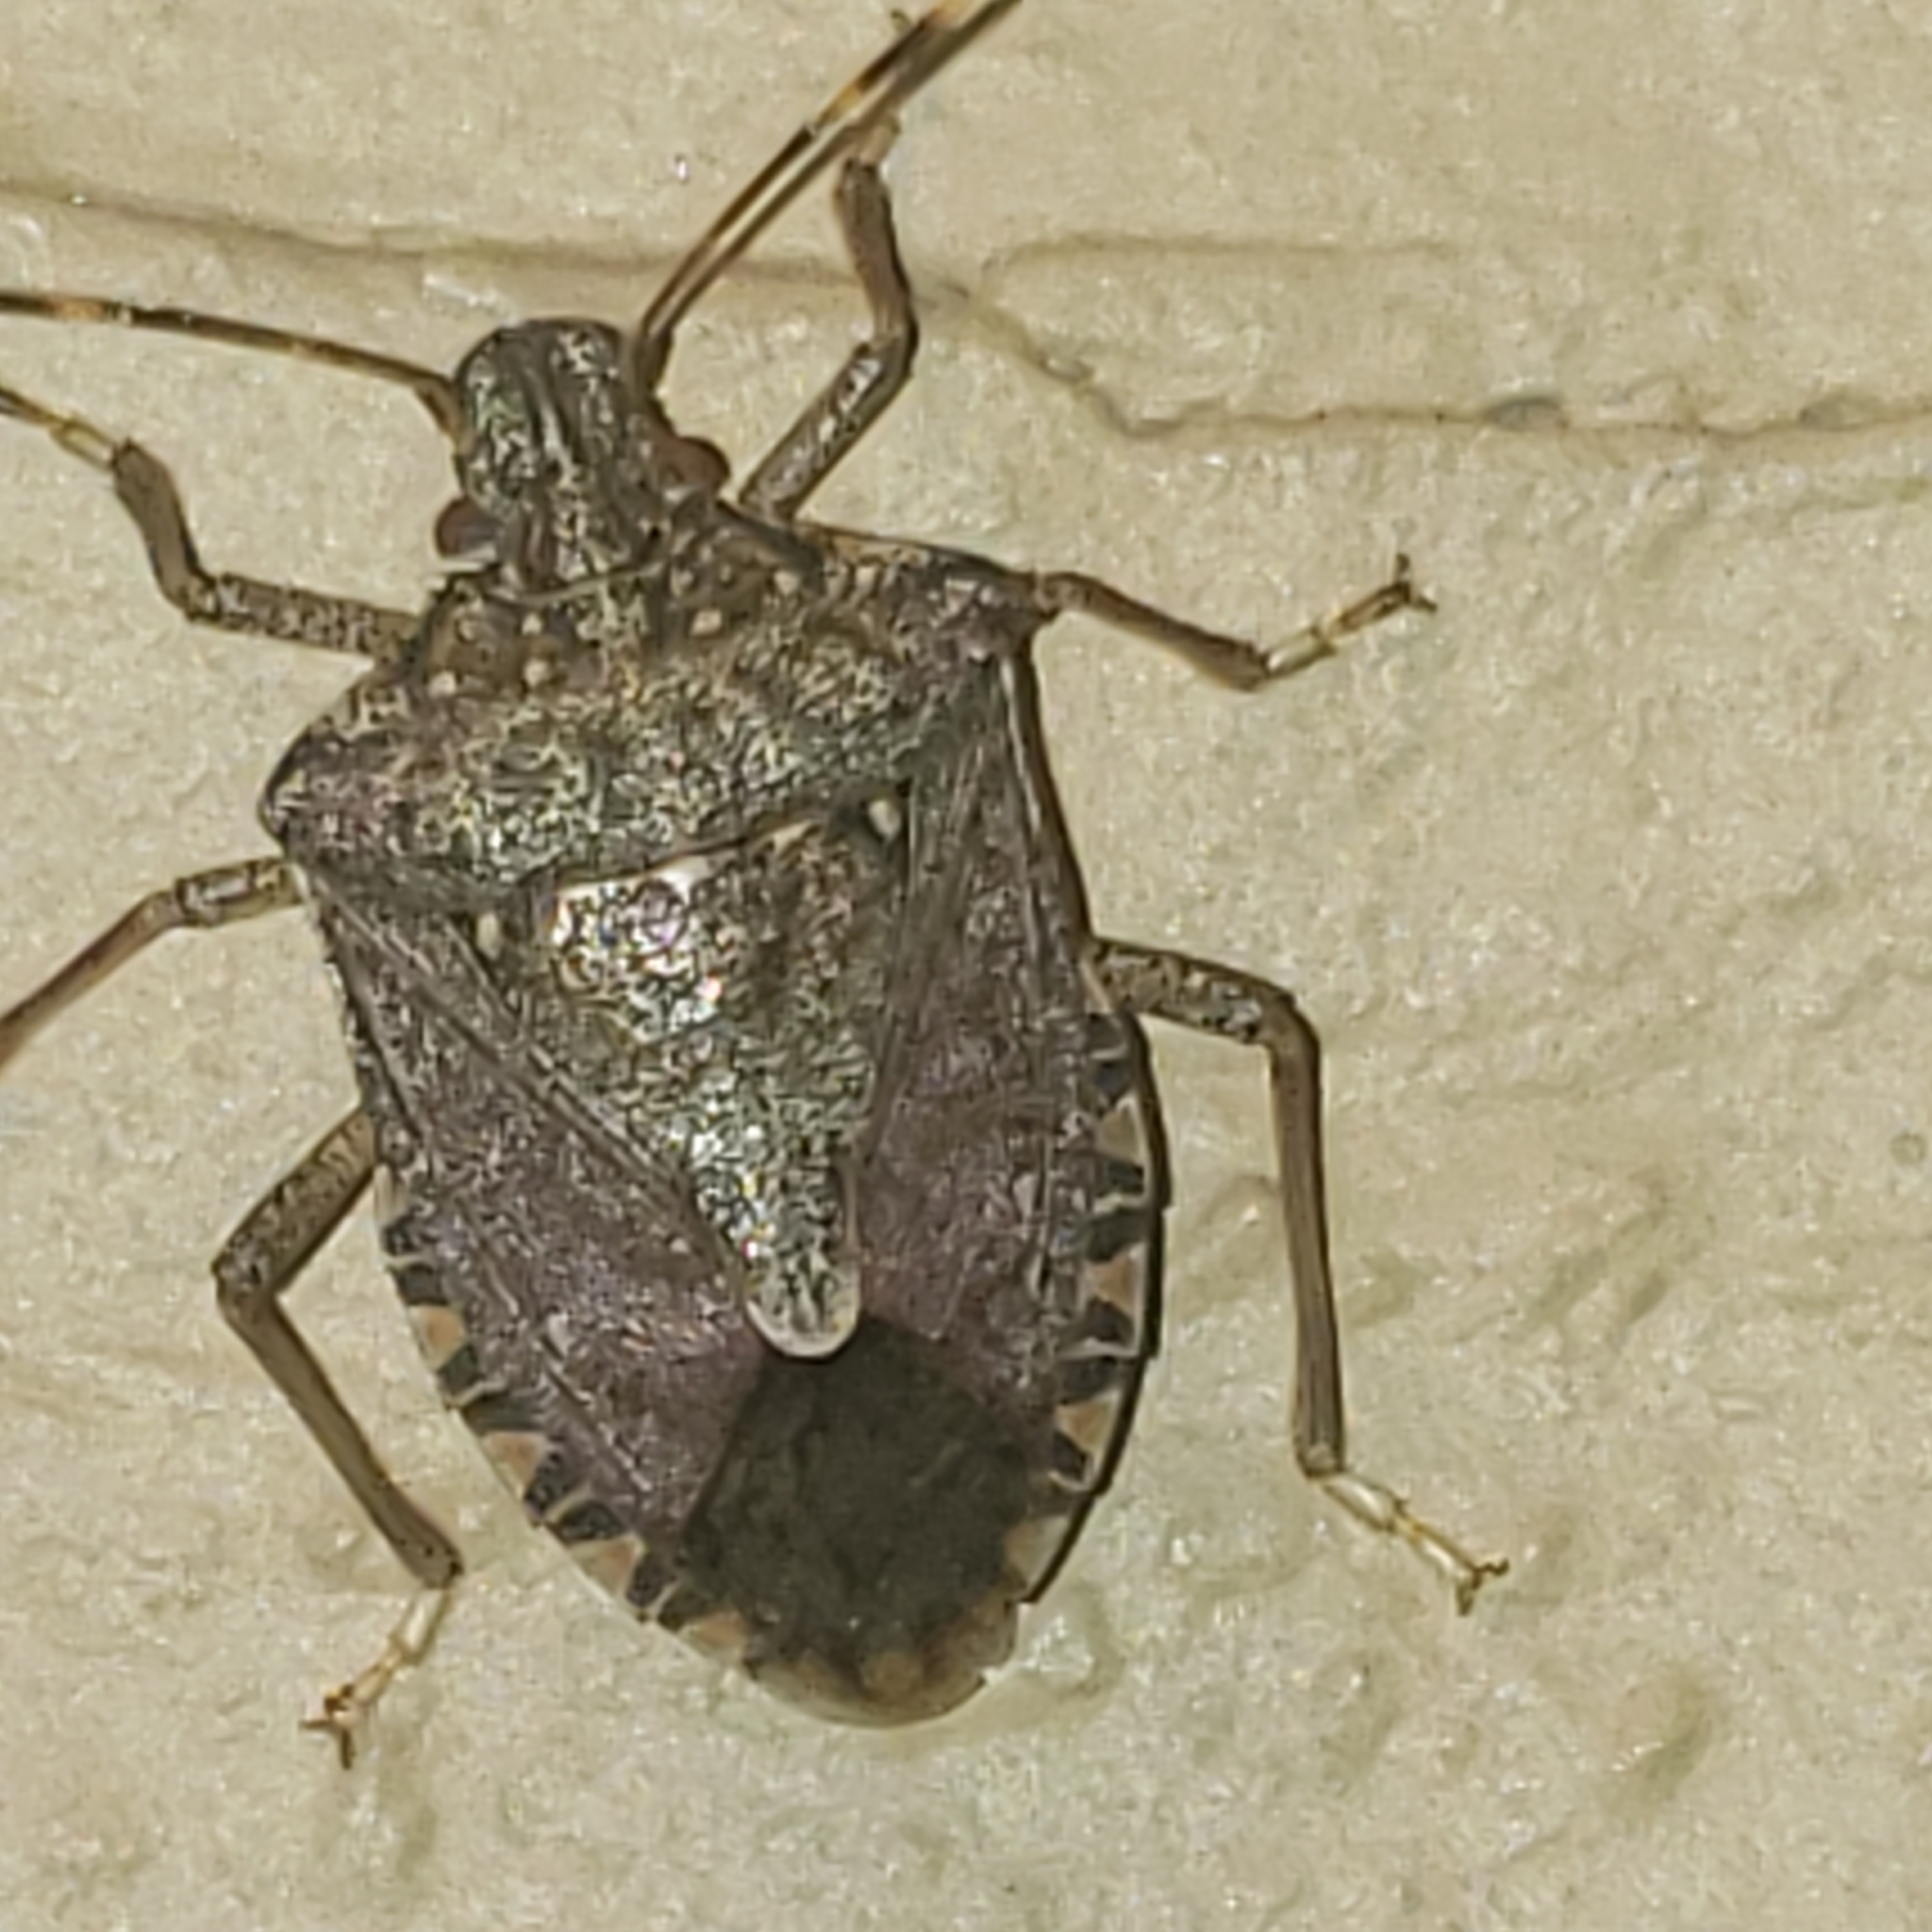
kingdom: Animalia
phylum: Arthropoda
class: Insecta
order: Hemiptera
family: Pentatomidae
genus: Halyomorpha
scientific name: Halyomorpha halys
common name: Brown marmorated stink bug
